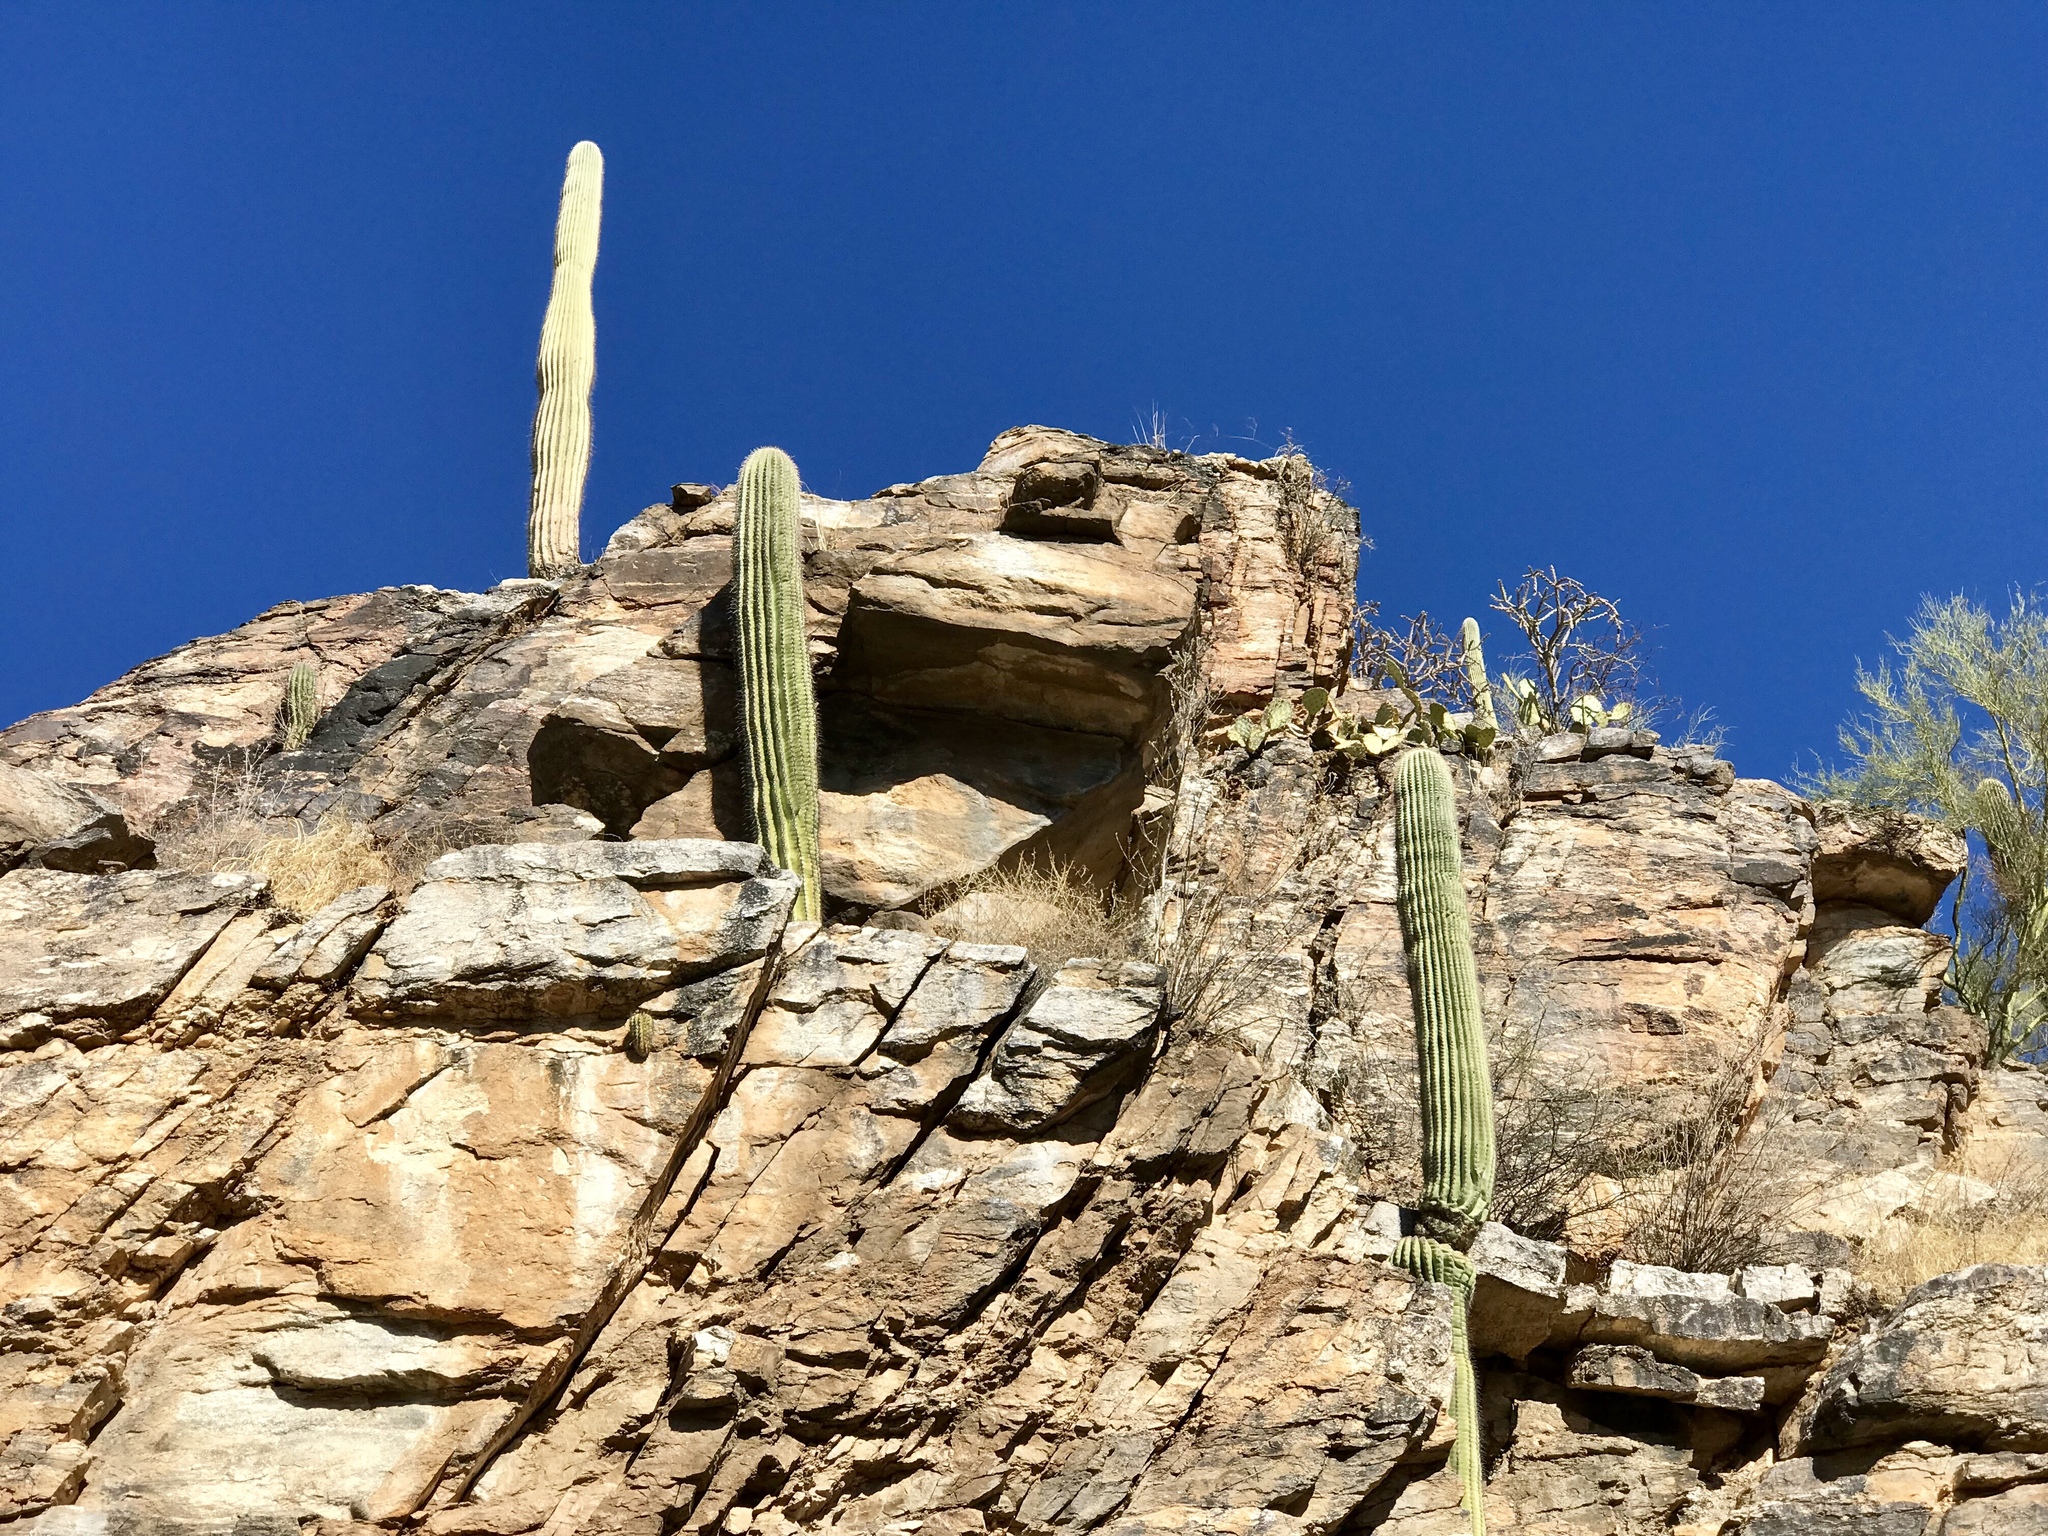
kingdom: Plantae
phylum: Tracheophyta
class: Magnoliopsida
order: Caryophyllales
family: Cactaceae
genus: Carnegiea
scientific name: Carnegiea gigantea
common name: Saguaro
